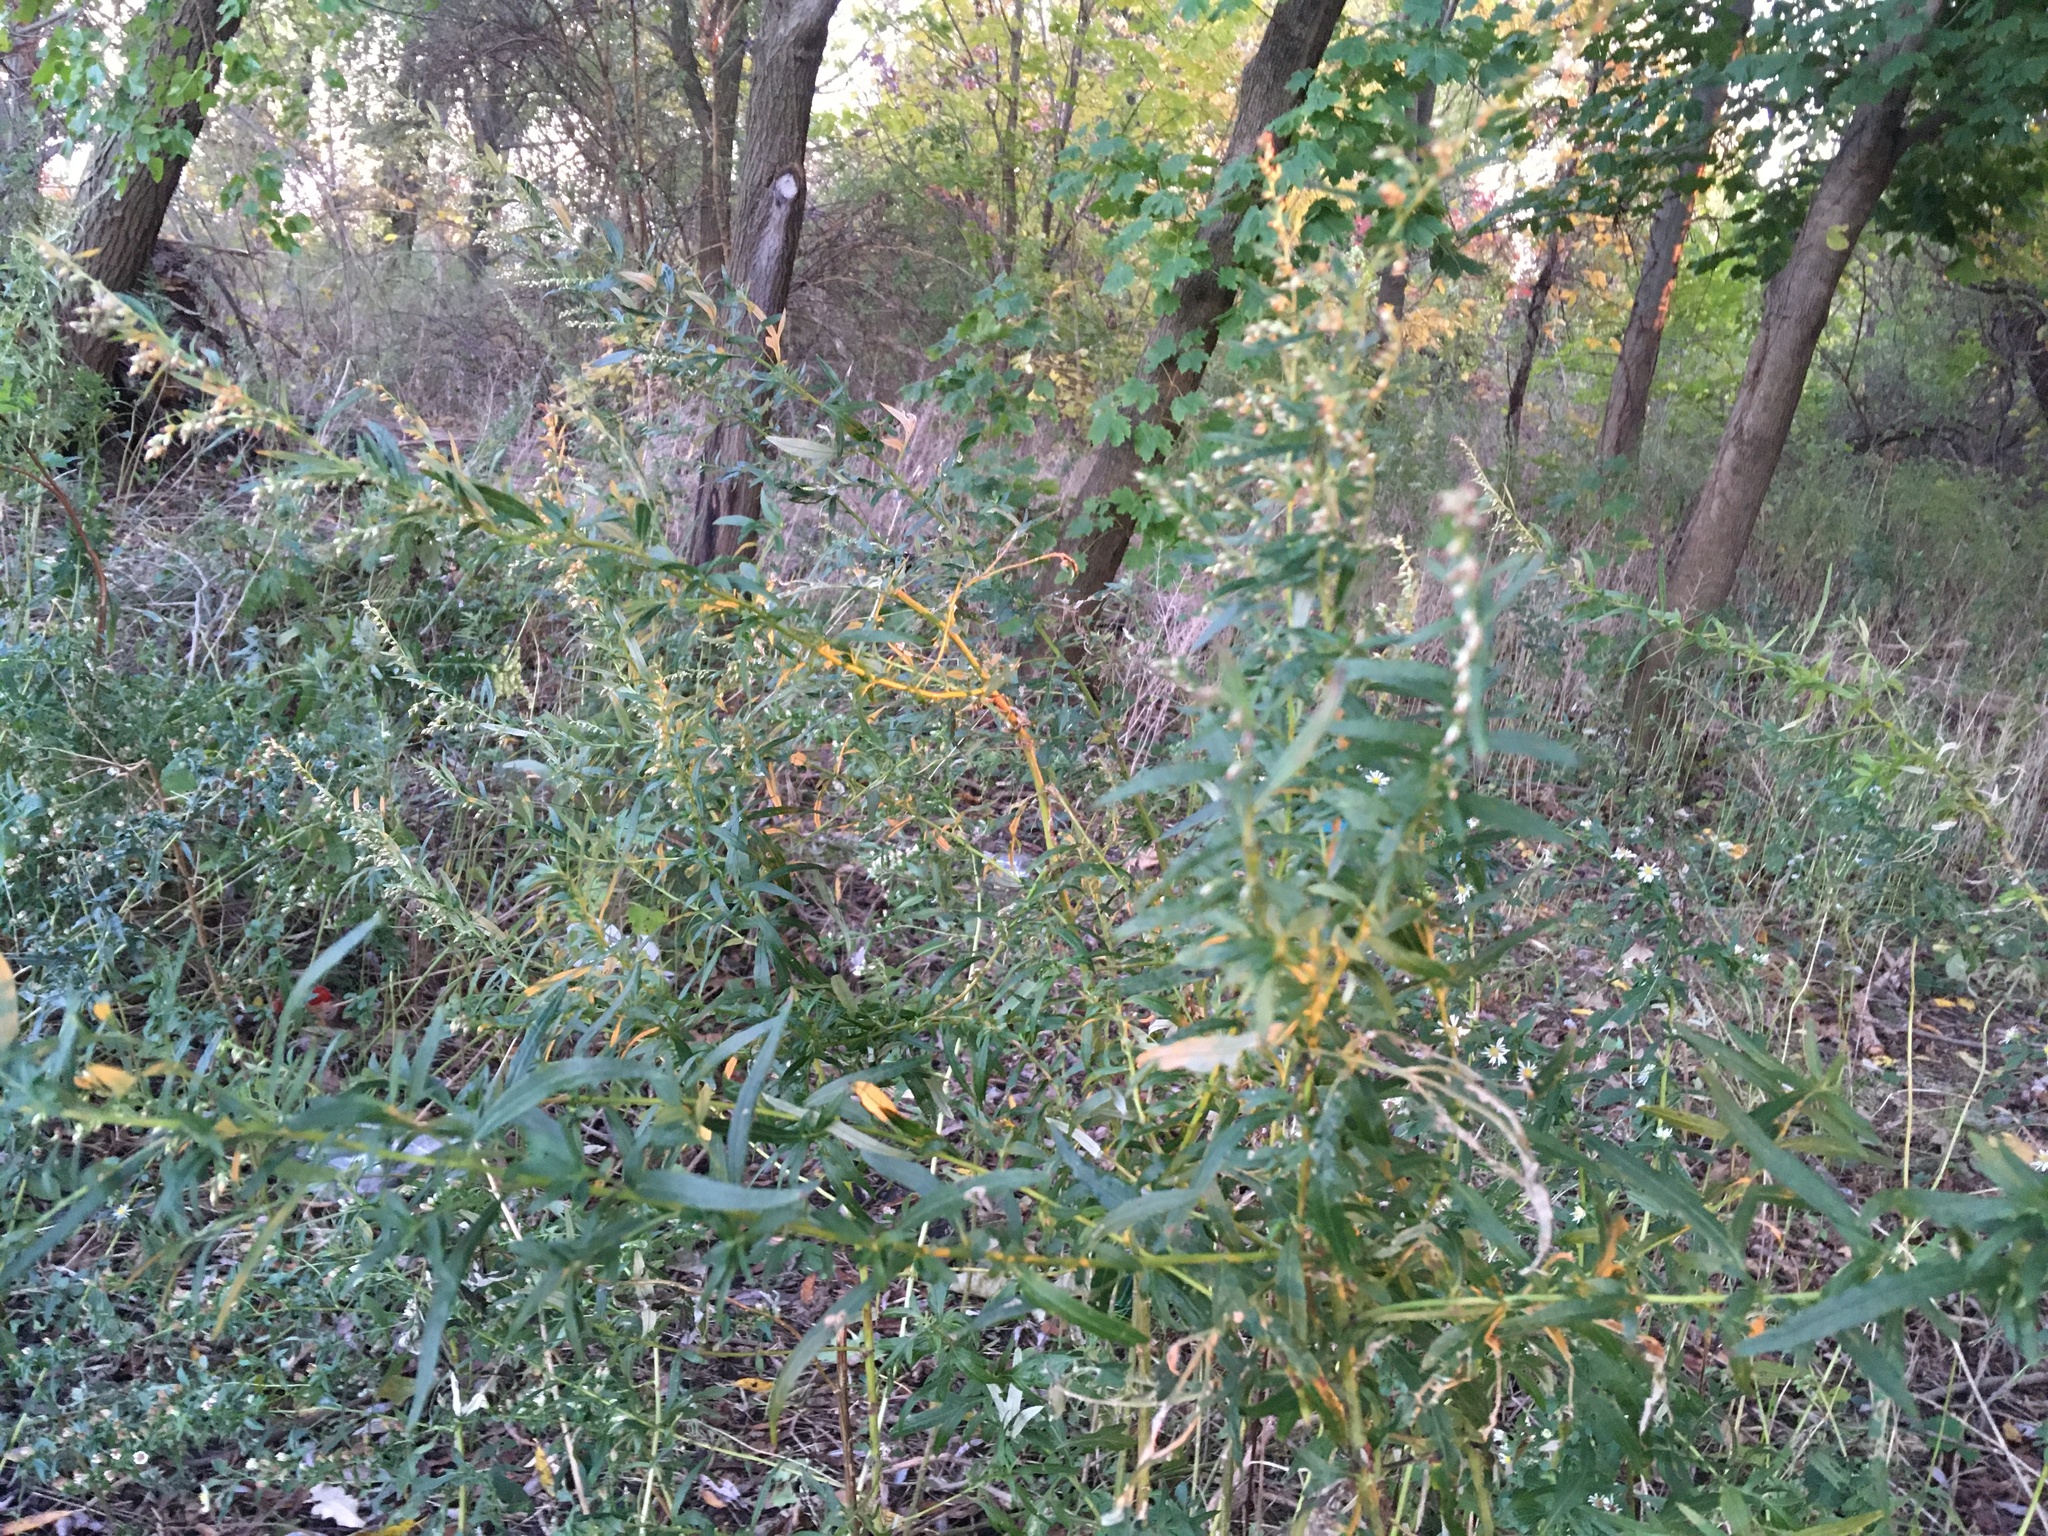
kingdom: Plantae
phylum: Tracheophyta
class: Magnoliopsida
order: Asterales
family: Asteraceae
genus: Artemisia
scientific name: Artemisia vulgaris
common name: Mugwort
